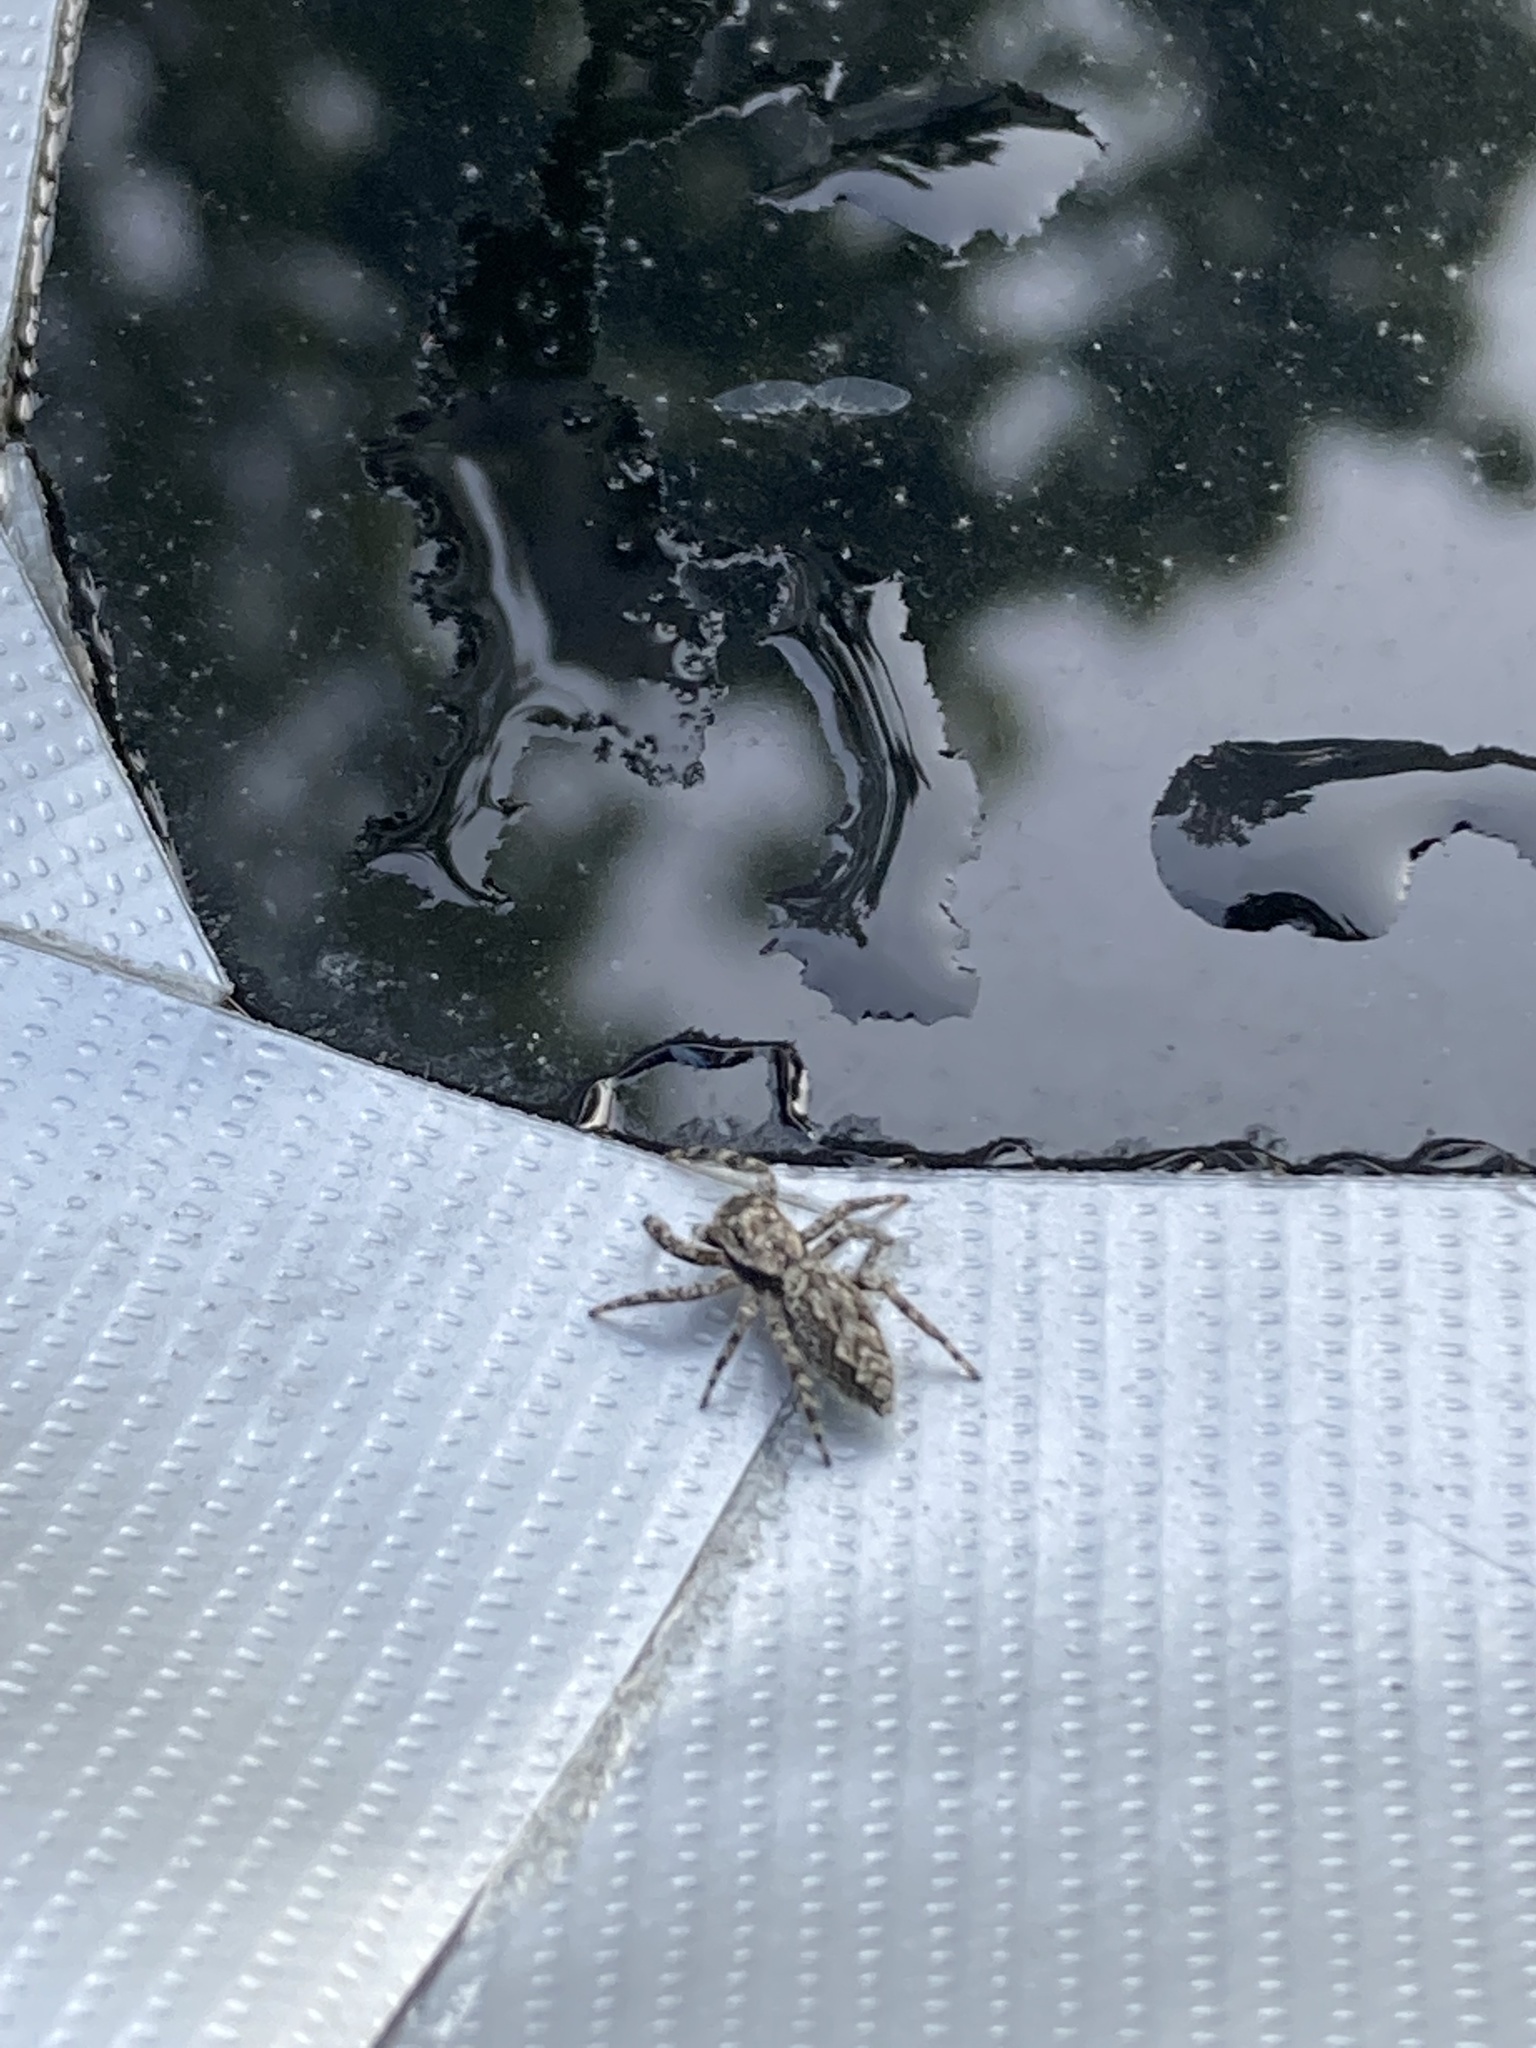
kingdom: Animalia
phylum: Arthropoda
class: Arachnida
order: Araneae
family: Salticidae
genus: Platycryptus
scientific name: Platycryptus undatus
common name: Tan jumping spider
